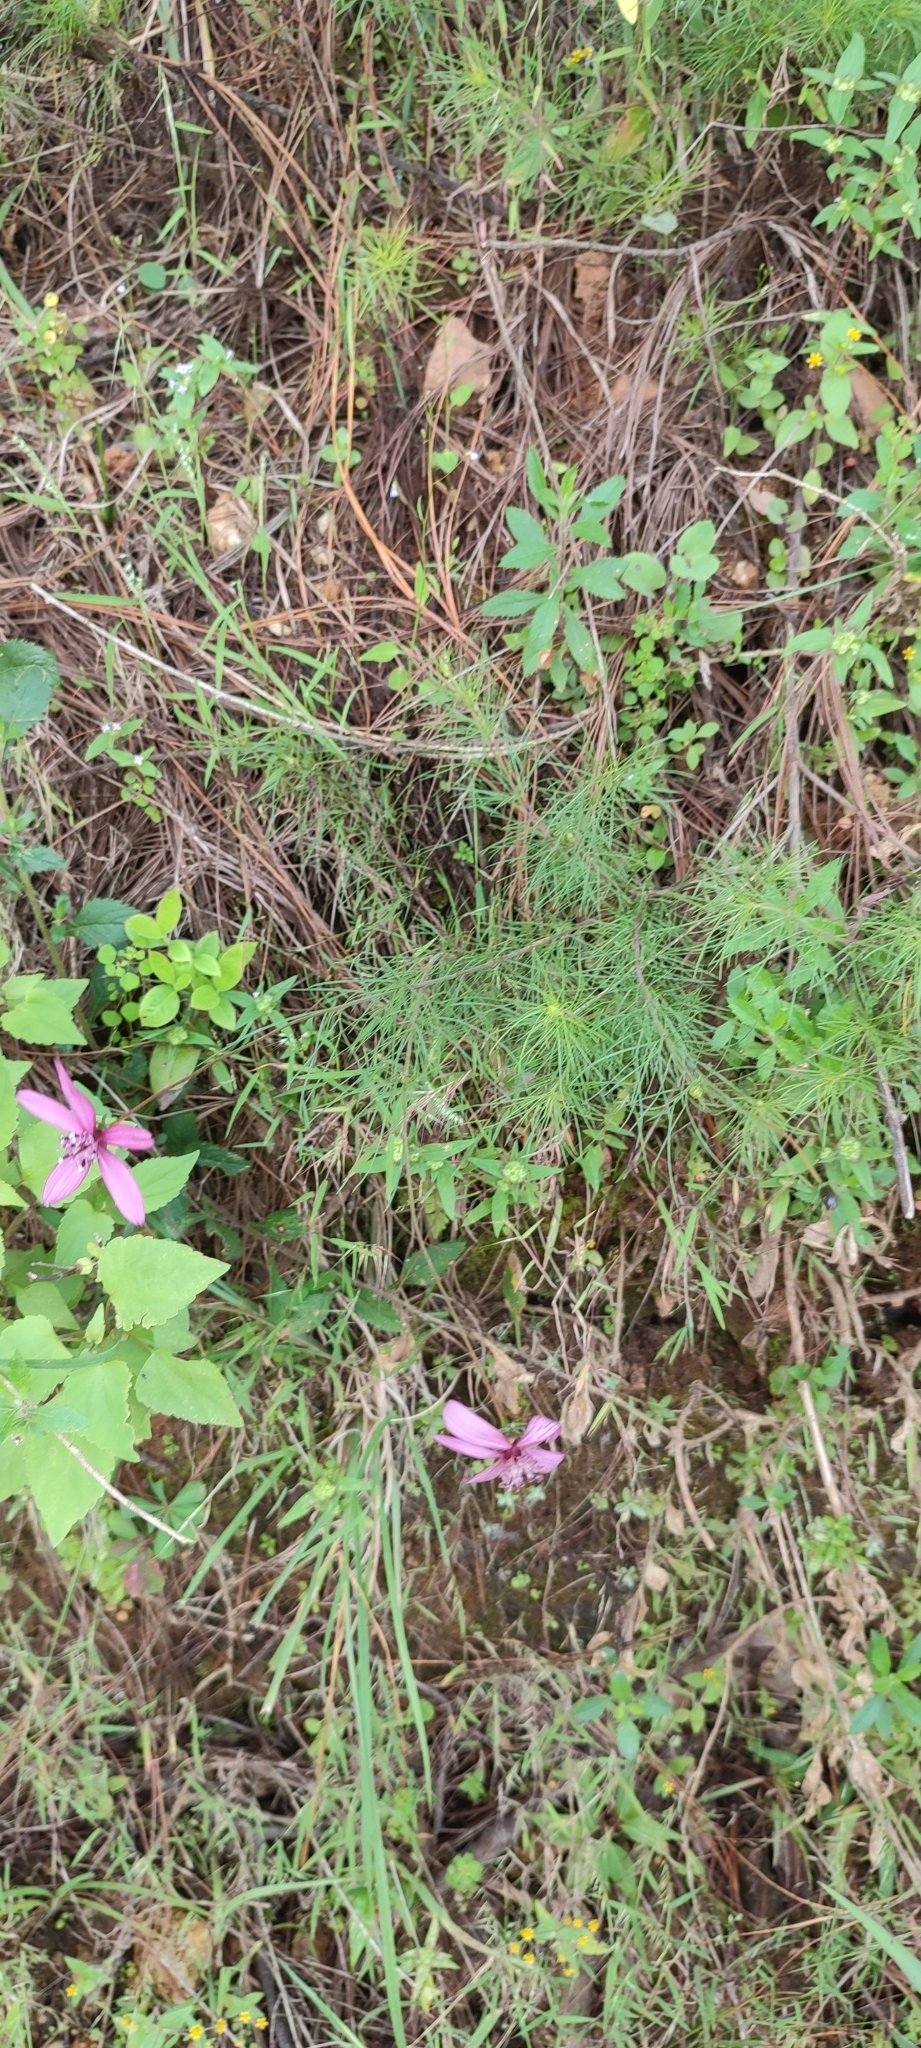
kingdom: Plantae
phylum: Tracheophyta
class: Magnoliopsida
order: Asterales
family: Asteraceae
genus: Cosmos
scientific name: Cosmos carvifolius
